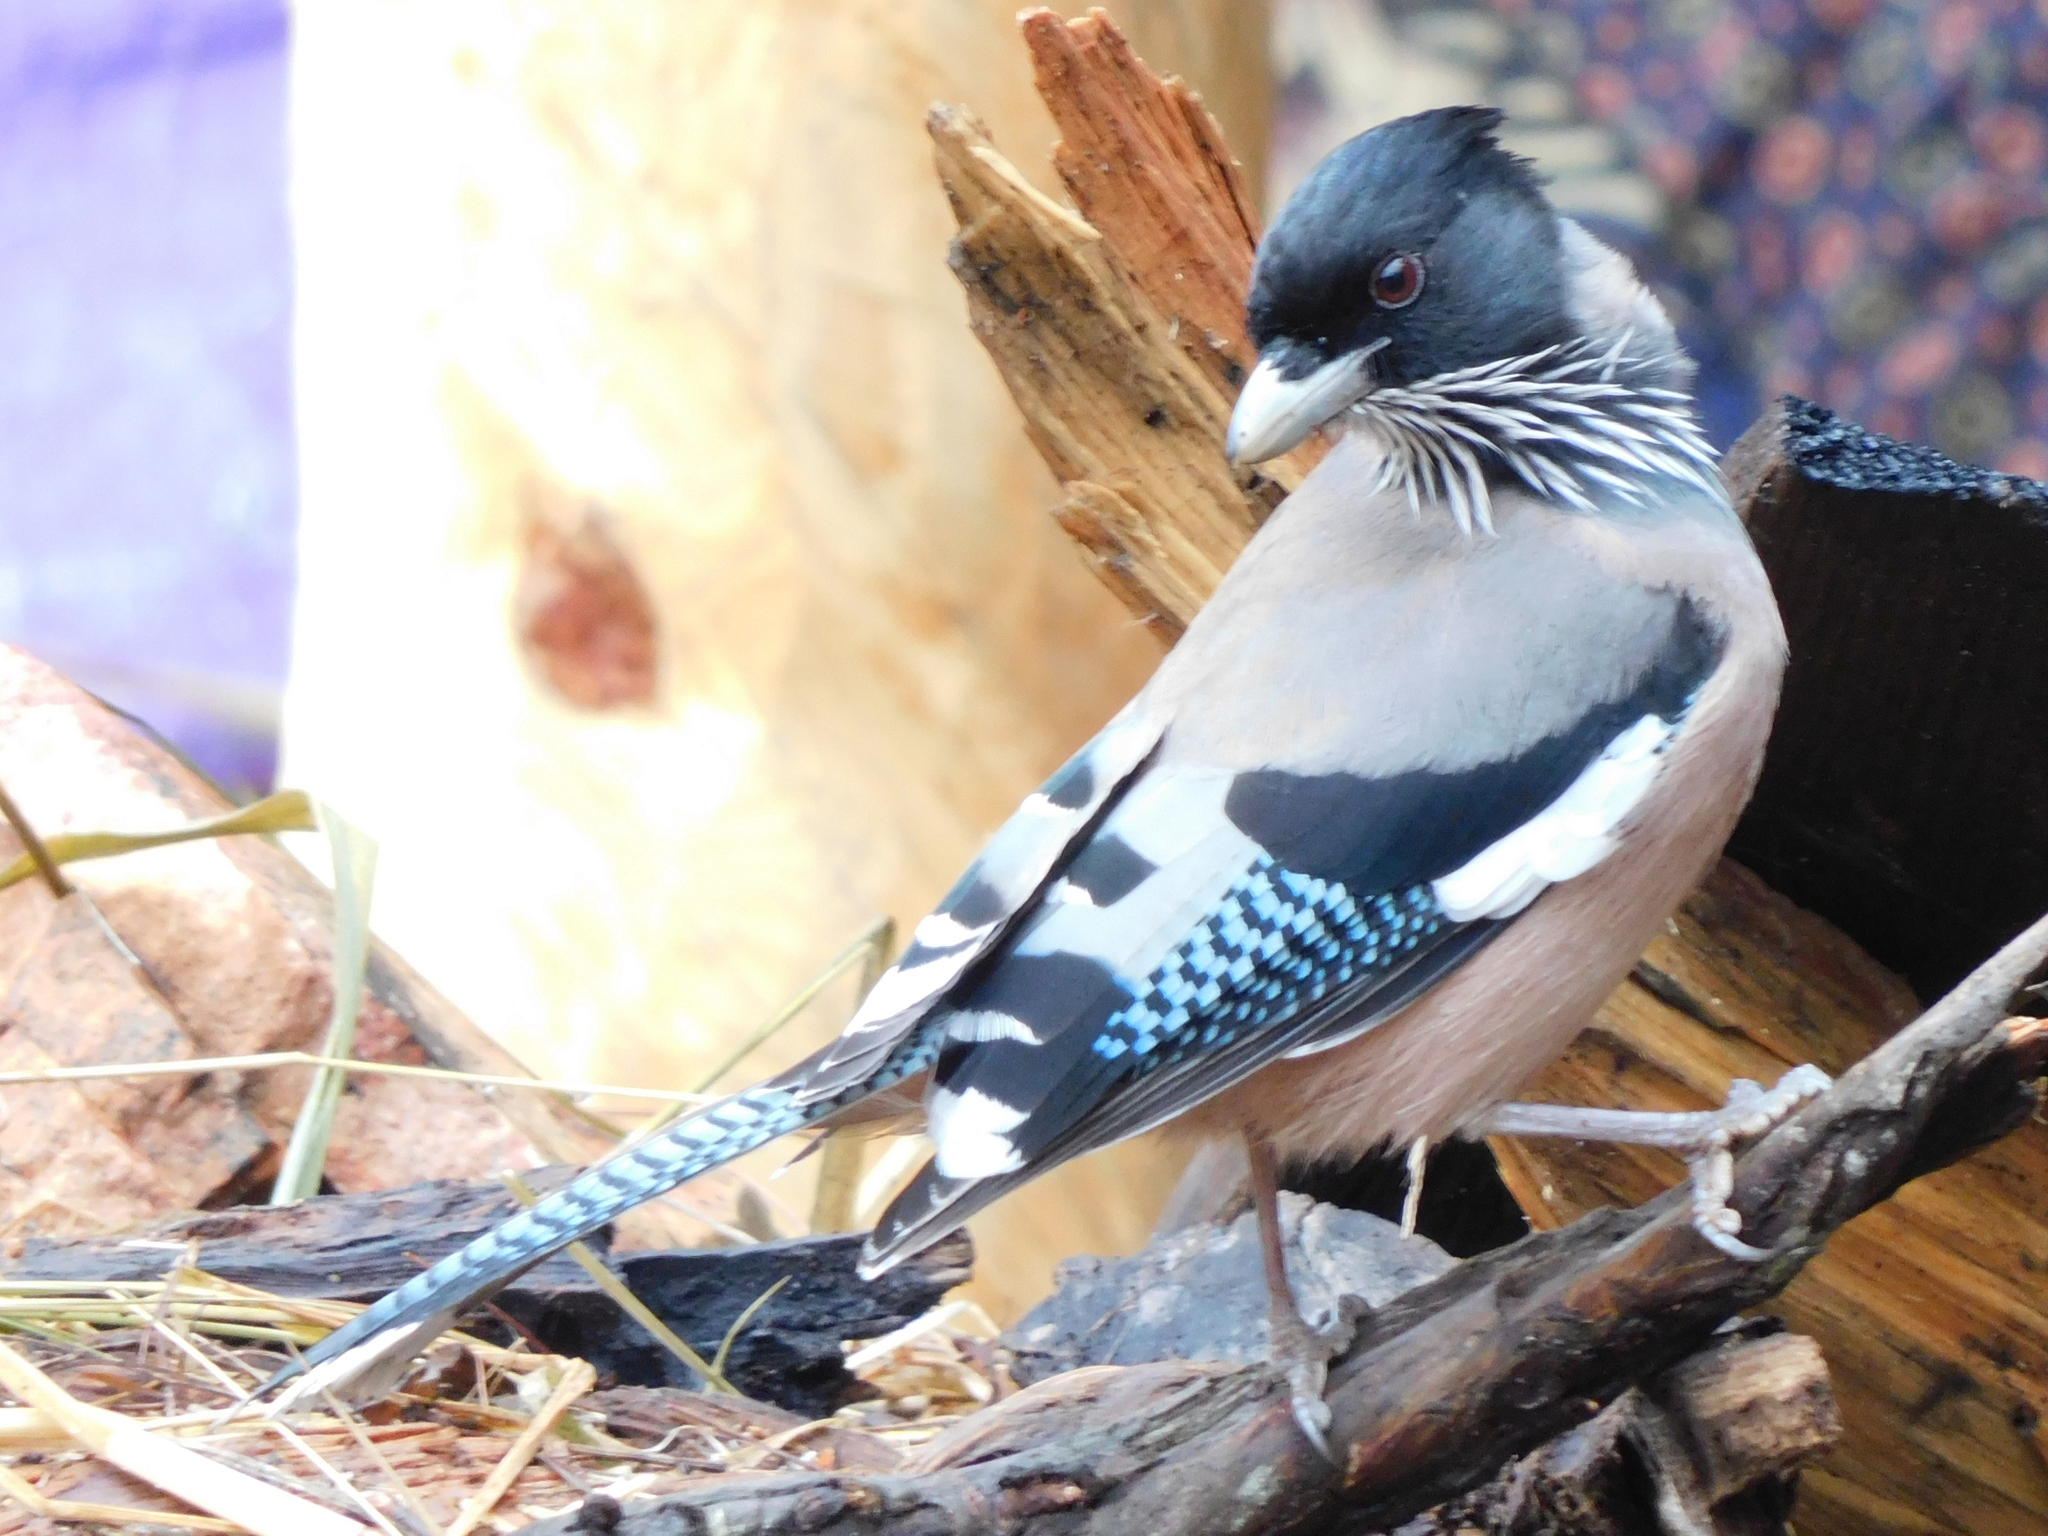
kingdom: Animalia
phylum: Chordata
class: Aves
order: Passeriformes
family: Corvidae
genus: Garrulus
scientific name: Garrulus lanceolatus
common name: Black-headed jay
